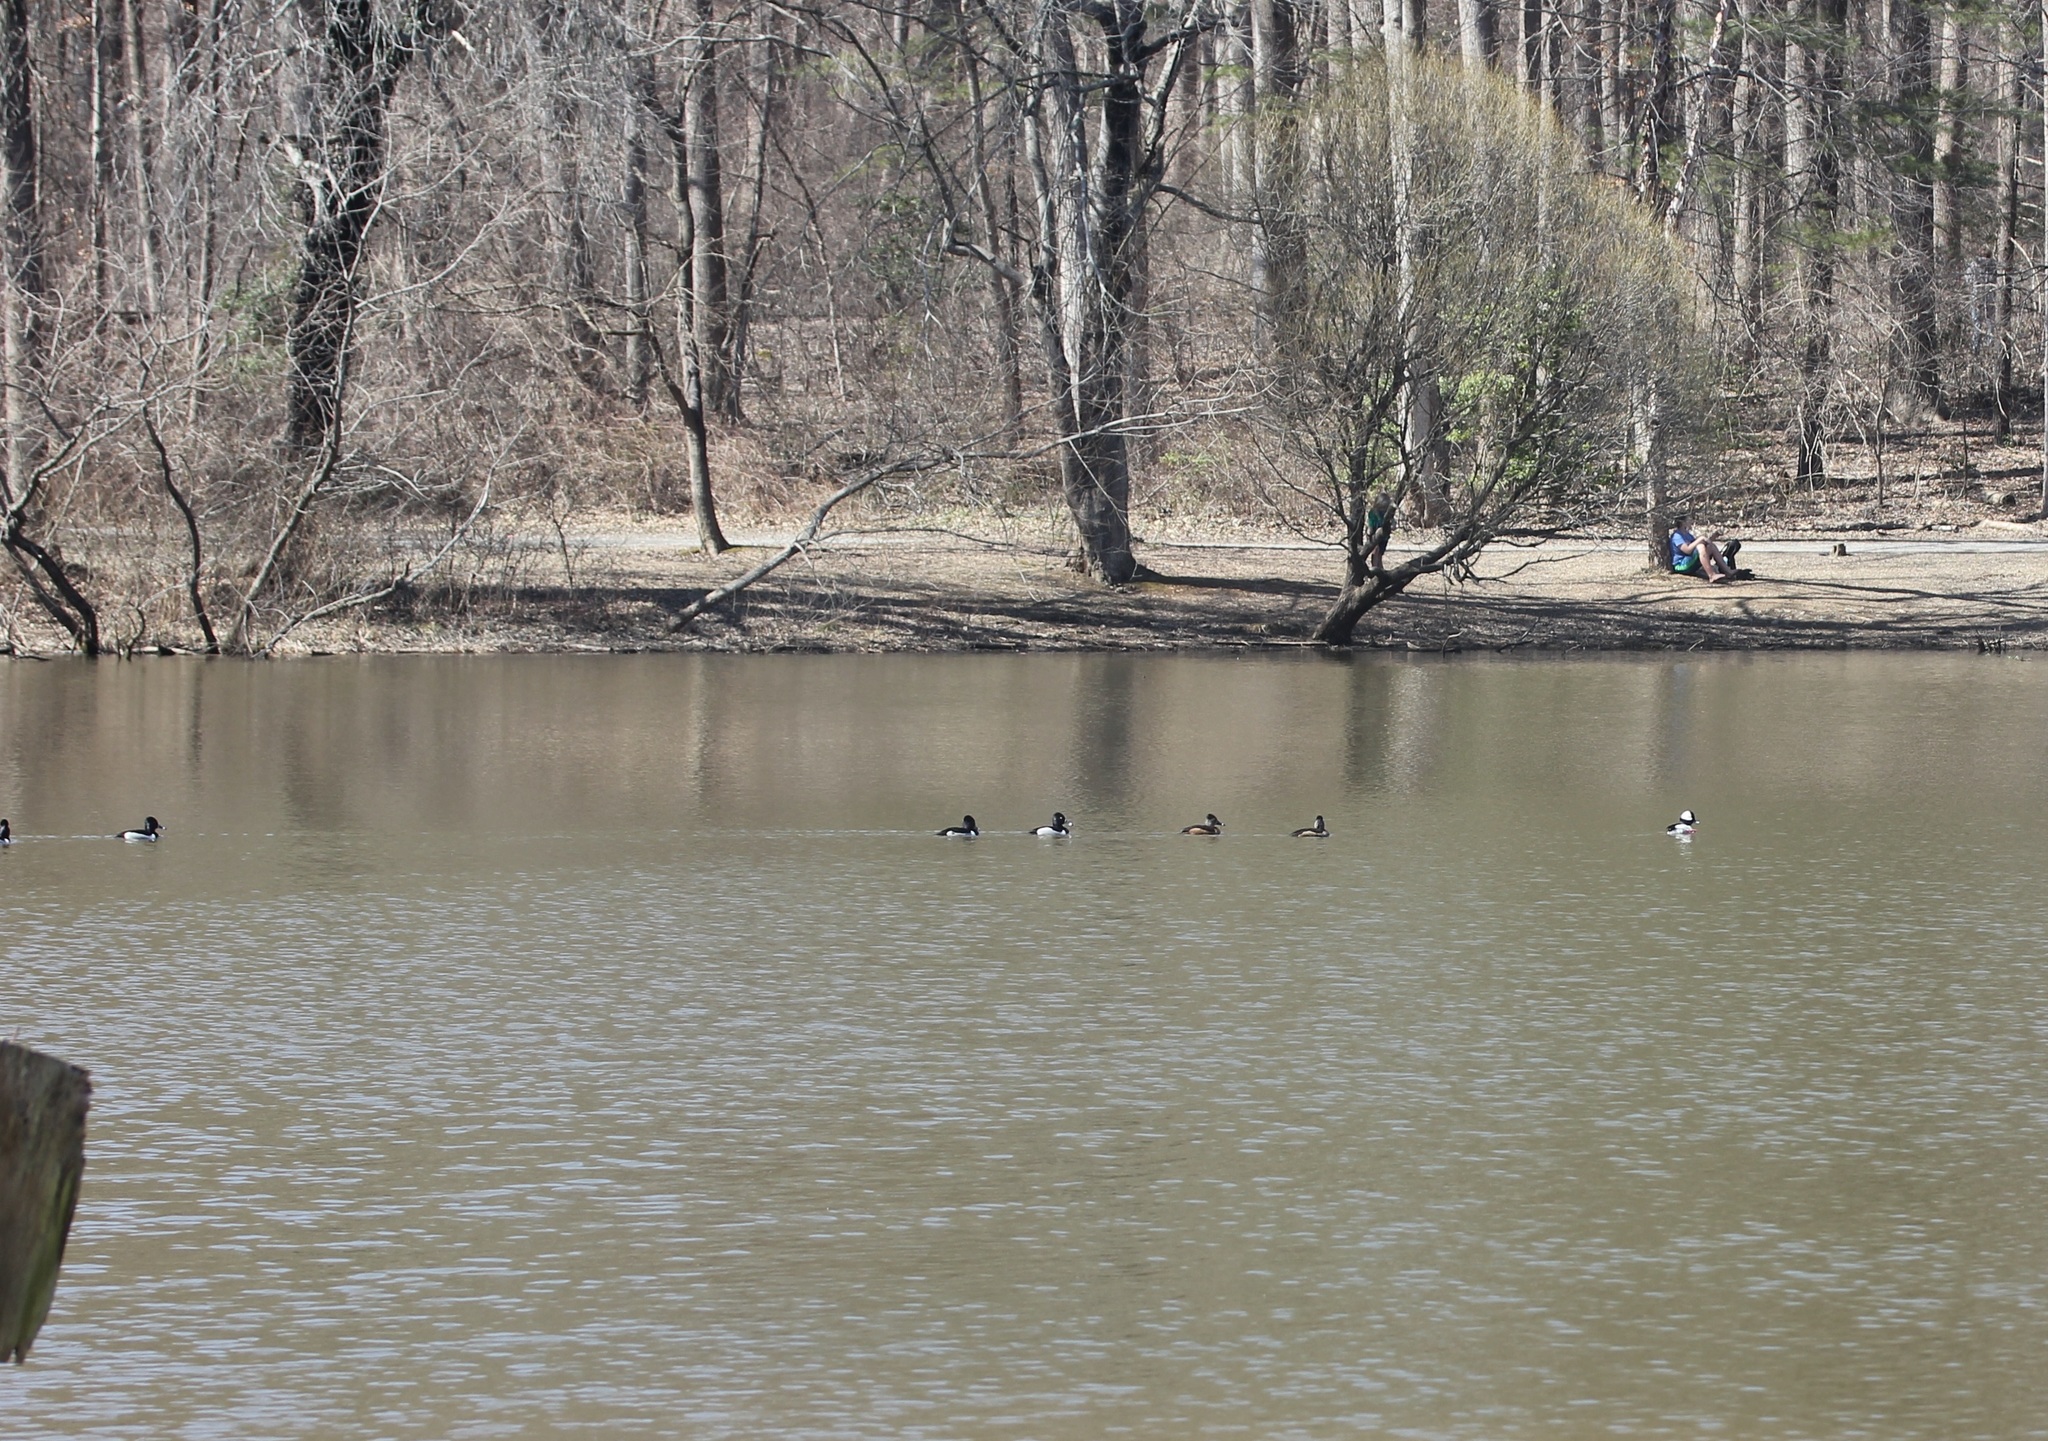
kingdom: Animalia
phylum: Chordata
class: Aves
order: Anseriformes
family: Anatidae
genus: Aythya
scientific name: Aythya collaris
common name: Ring-necked duck
